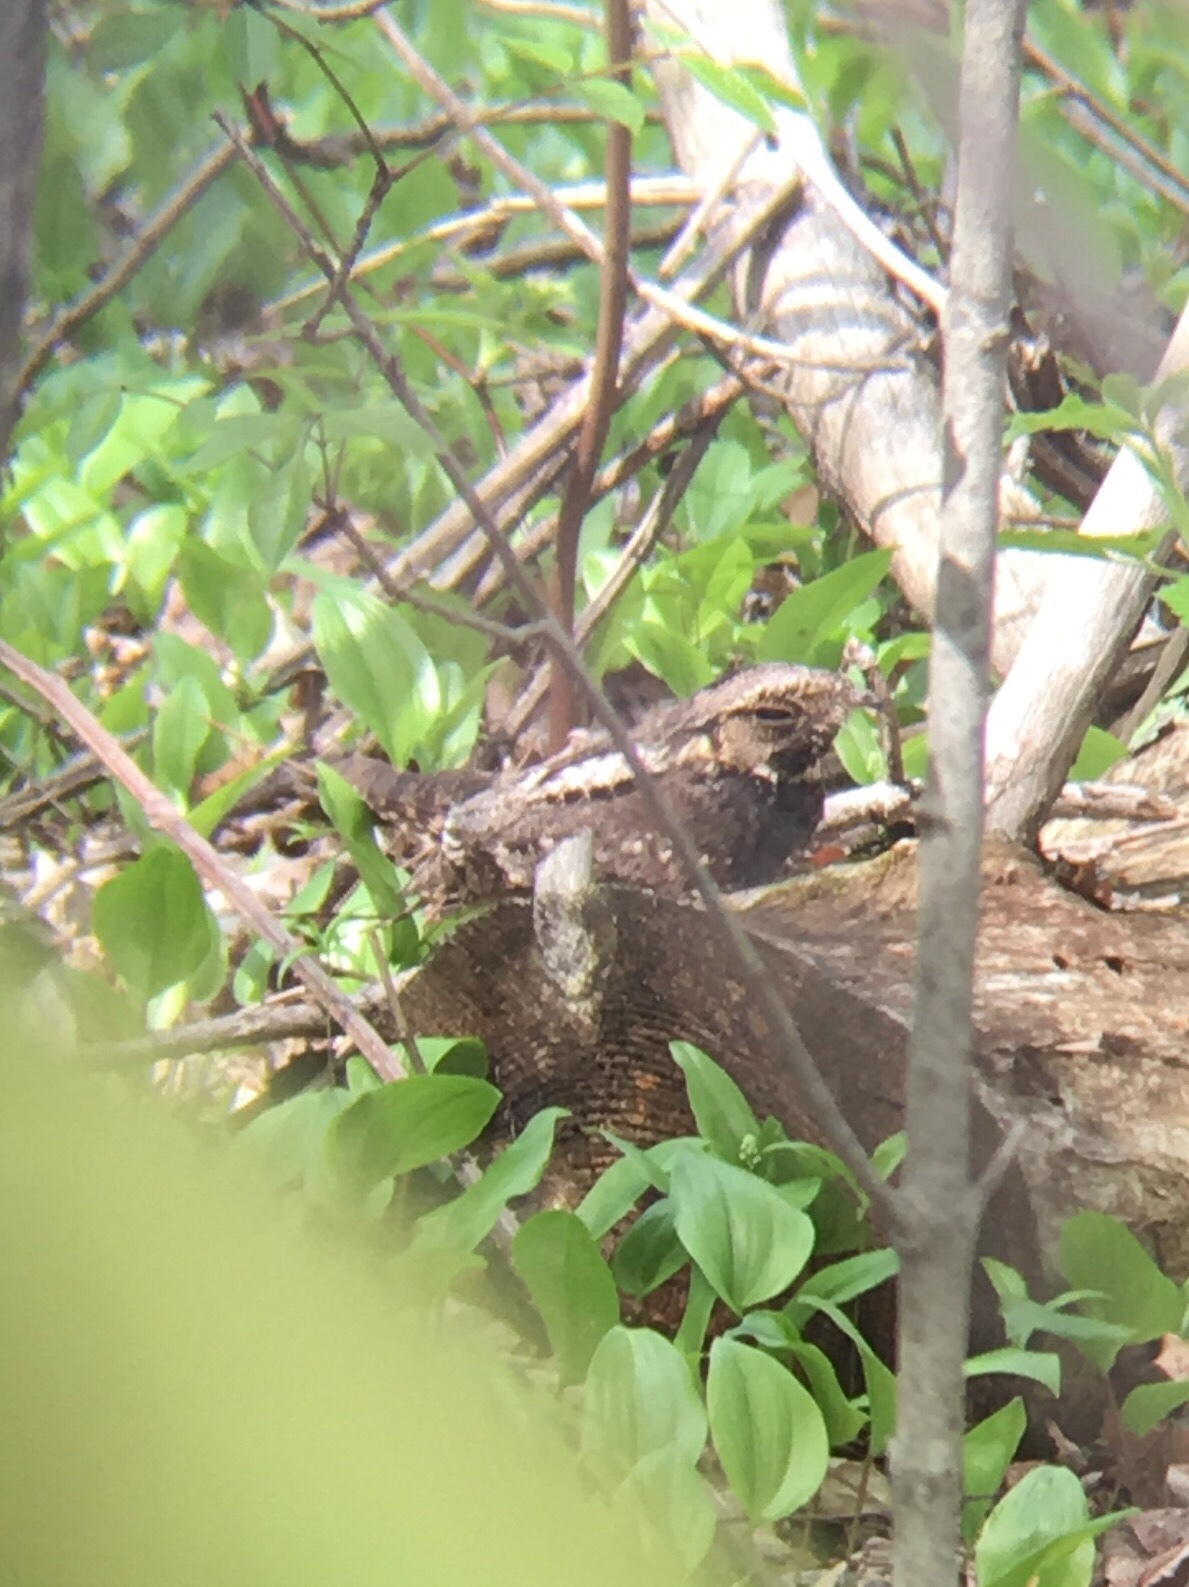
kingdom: Animalia
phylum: Chordata
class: Aves
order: Caprimulgiformes
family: Caprimulgidae
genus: Antrostomus
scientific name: Antrostomus vociferus
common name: Eastern whip-poor-will
